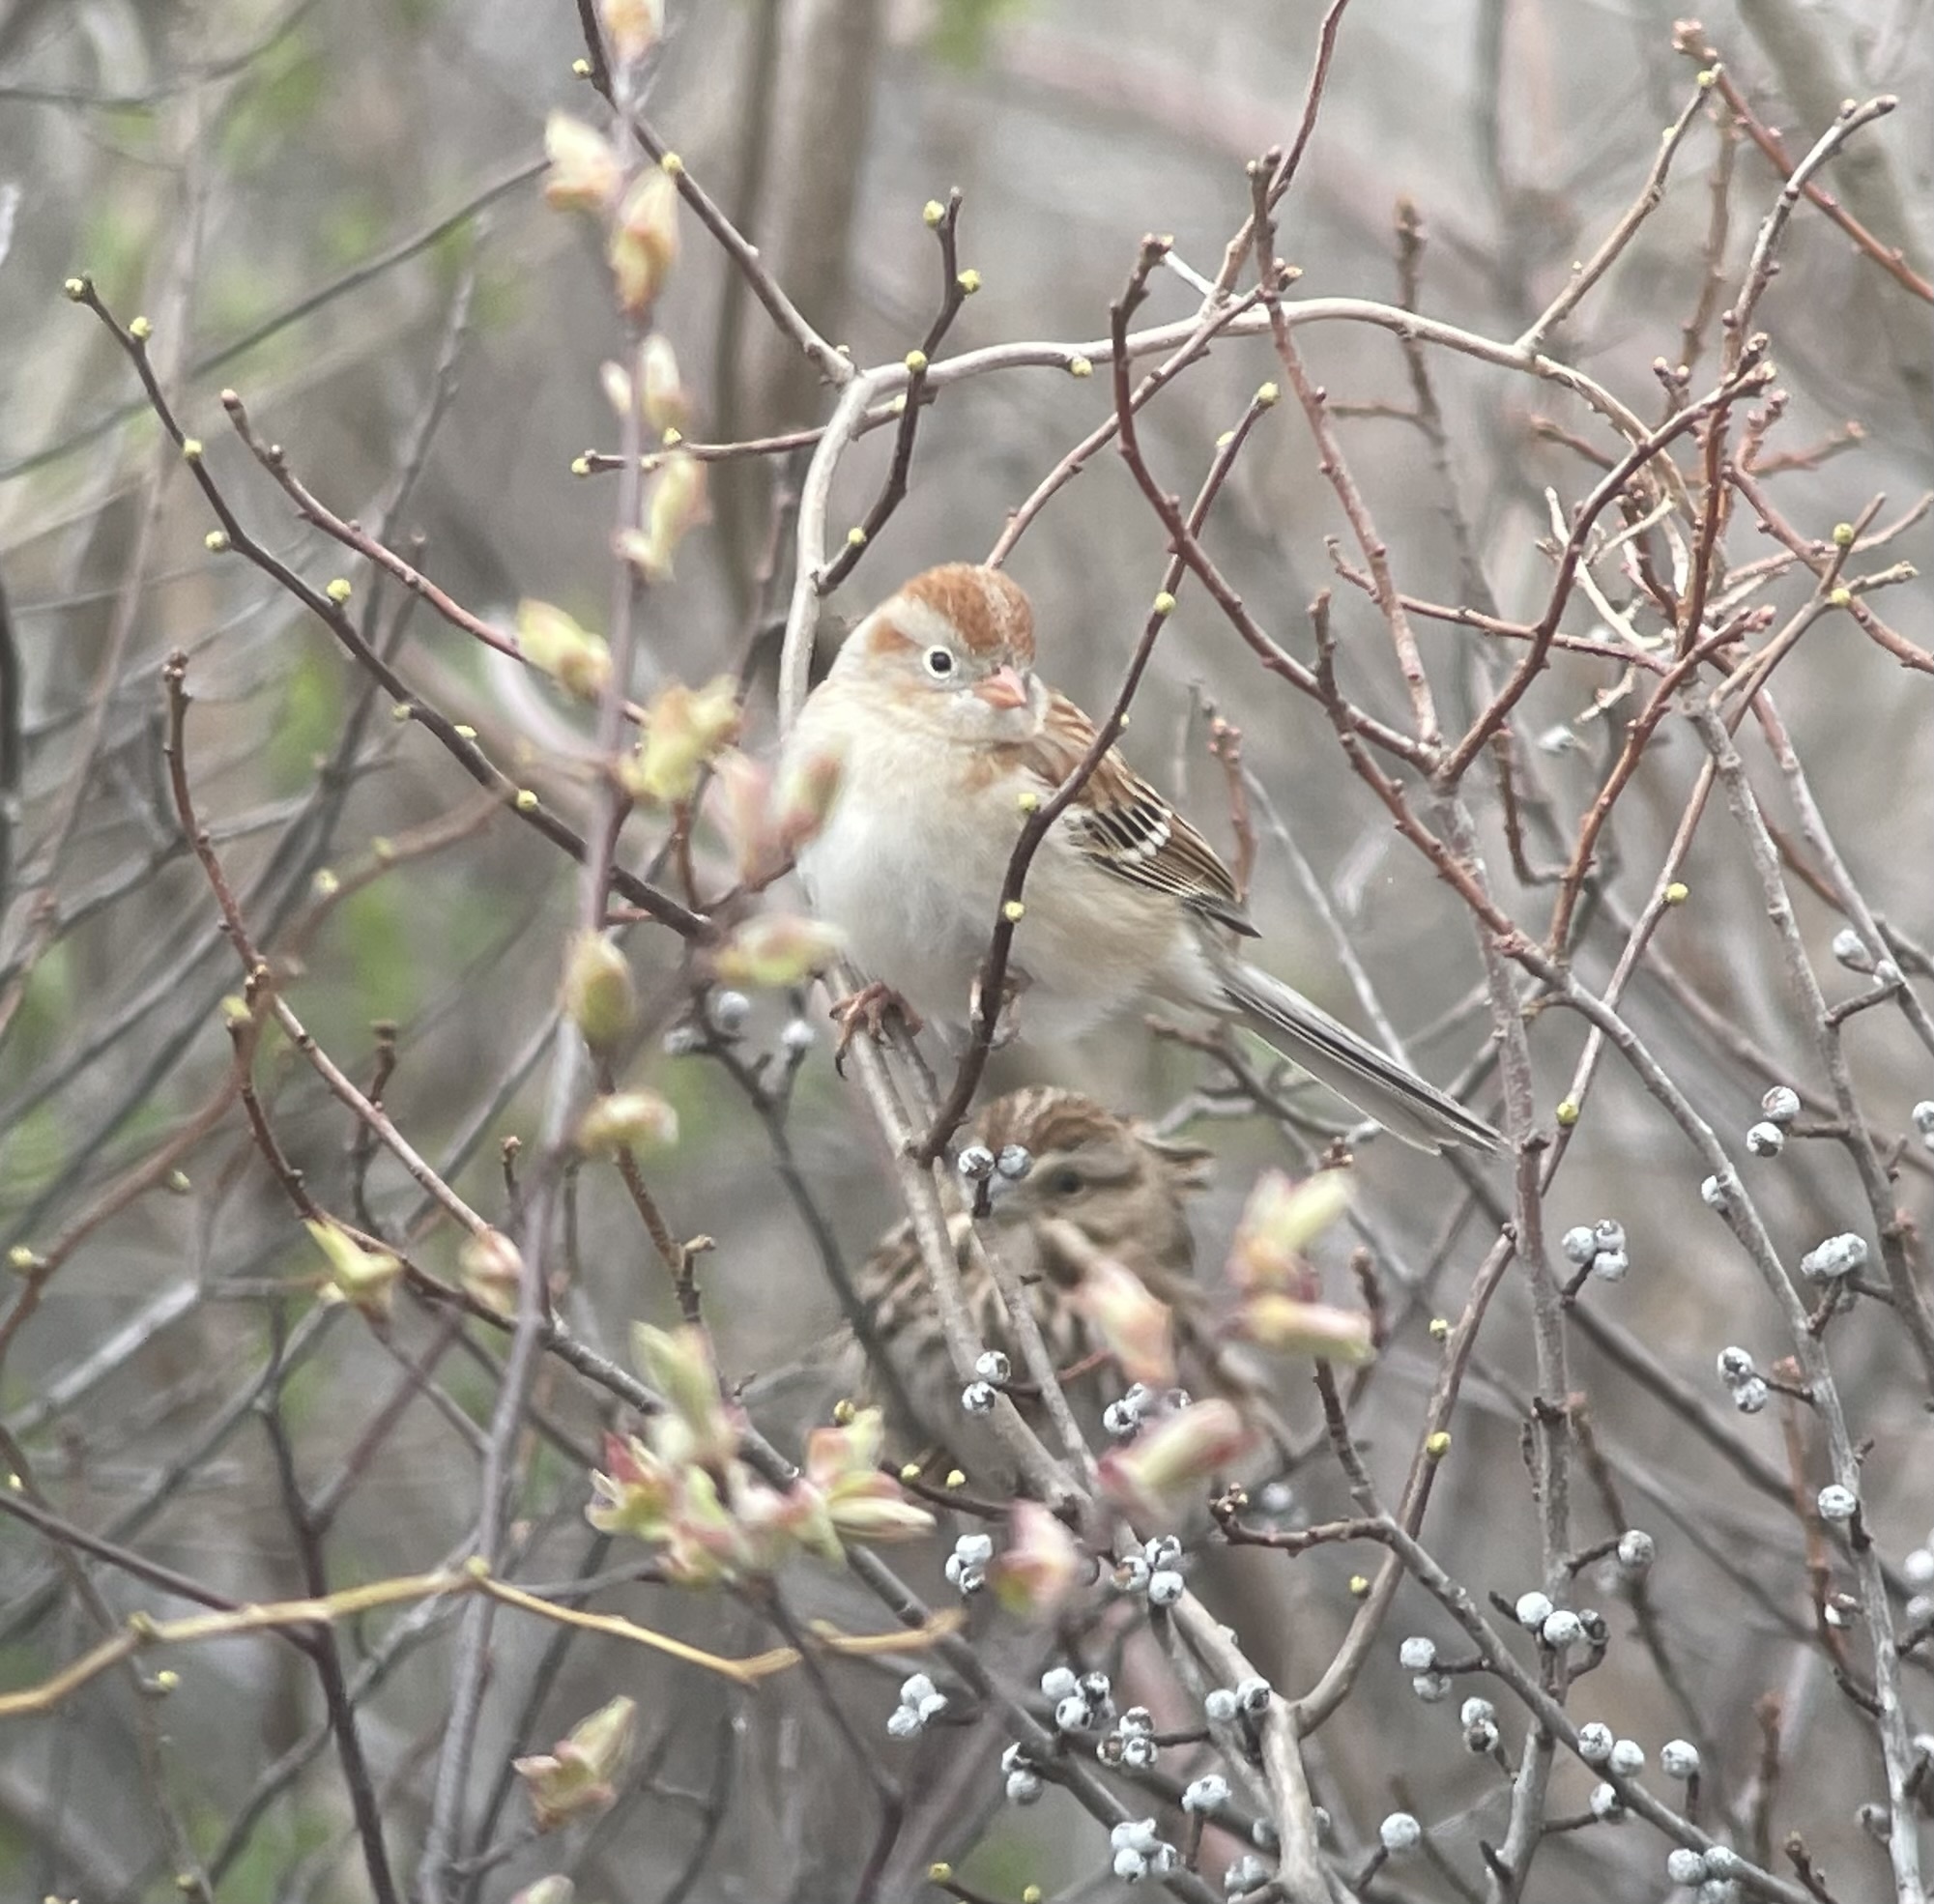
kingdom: Animalia
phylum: Chordata
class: Aves
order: Passeriformes
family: Passerellidae
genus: Spizella
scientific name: Spizella pusilla
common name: Field sparrow
